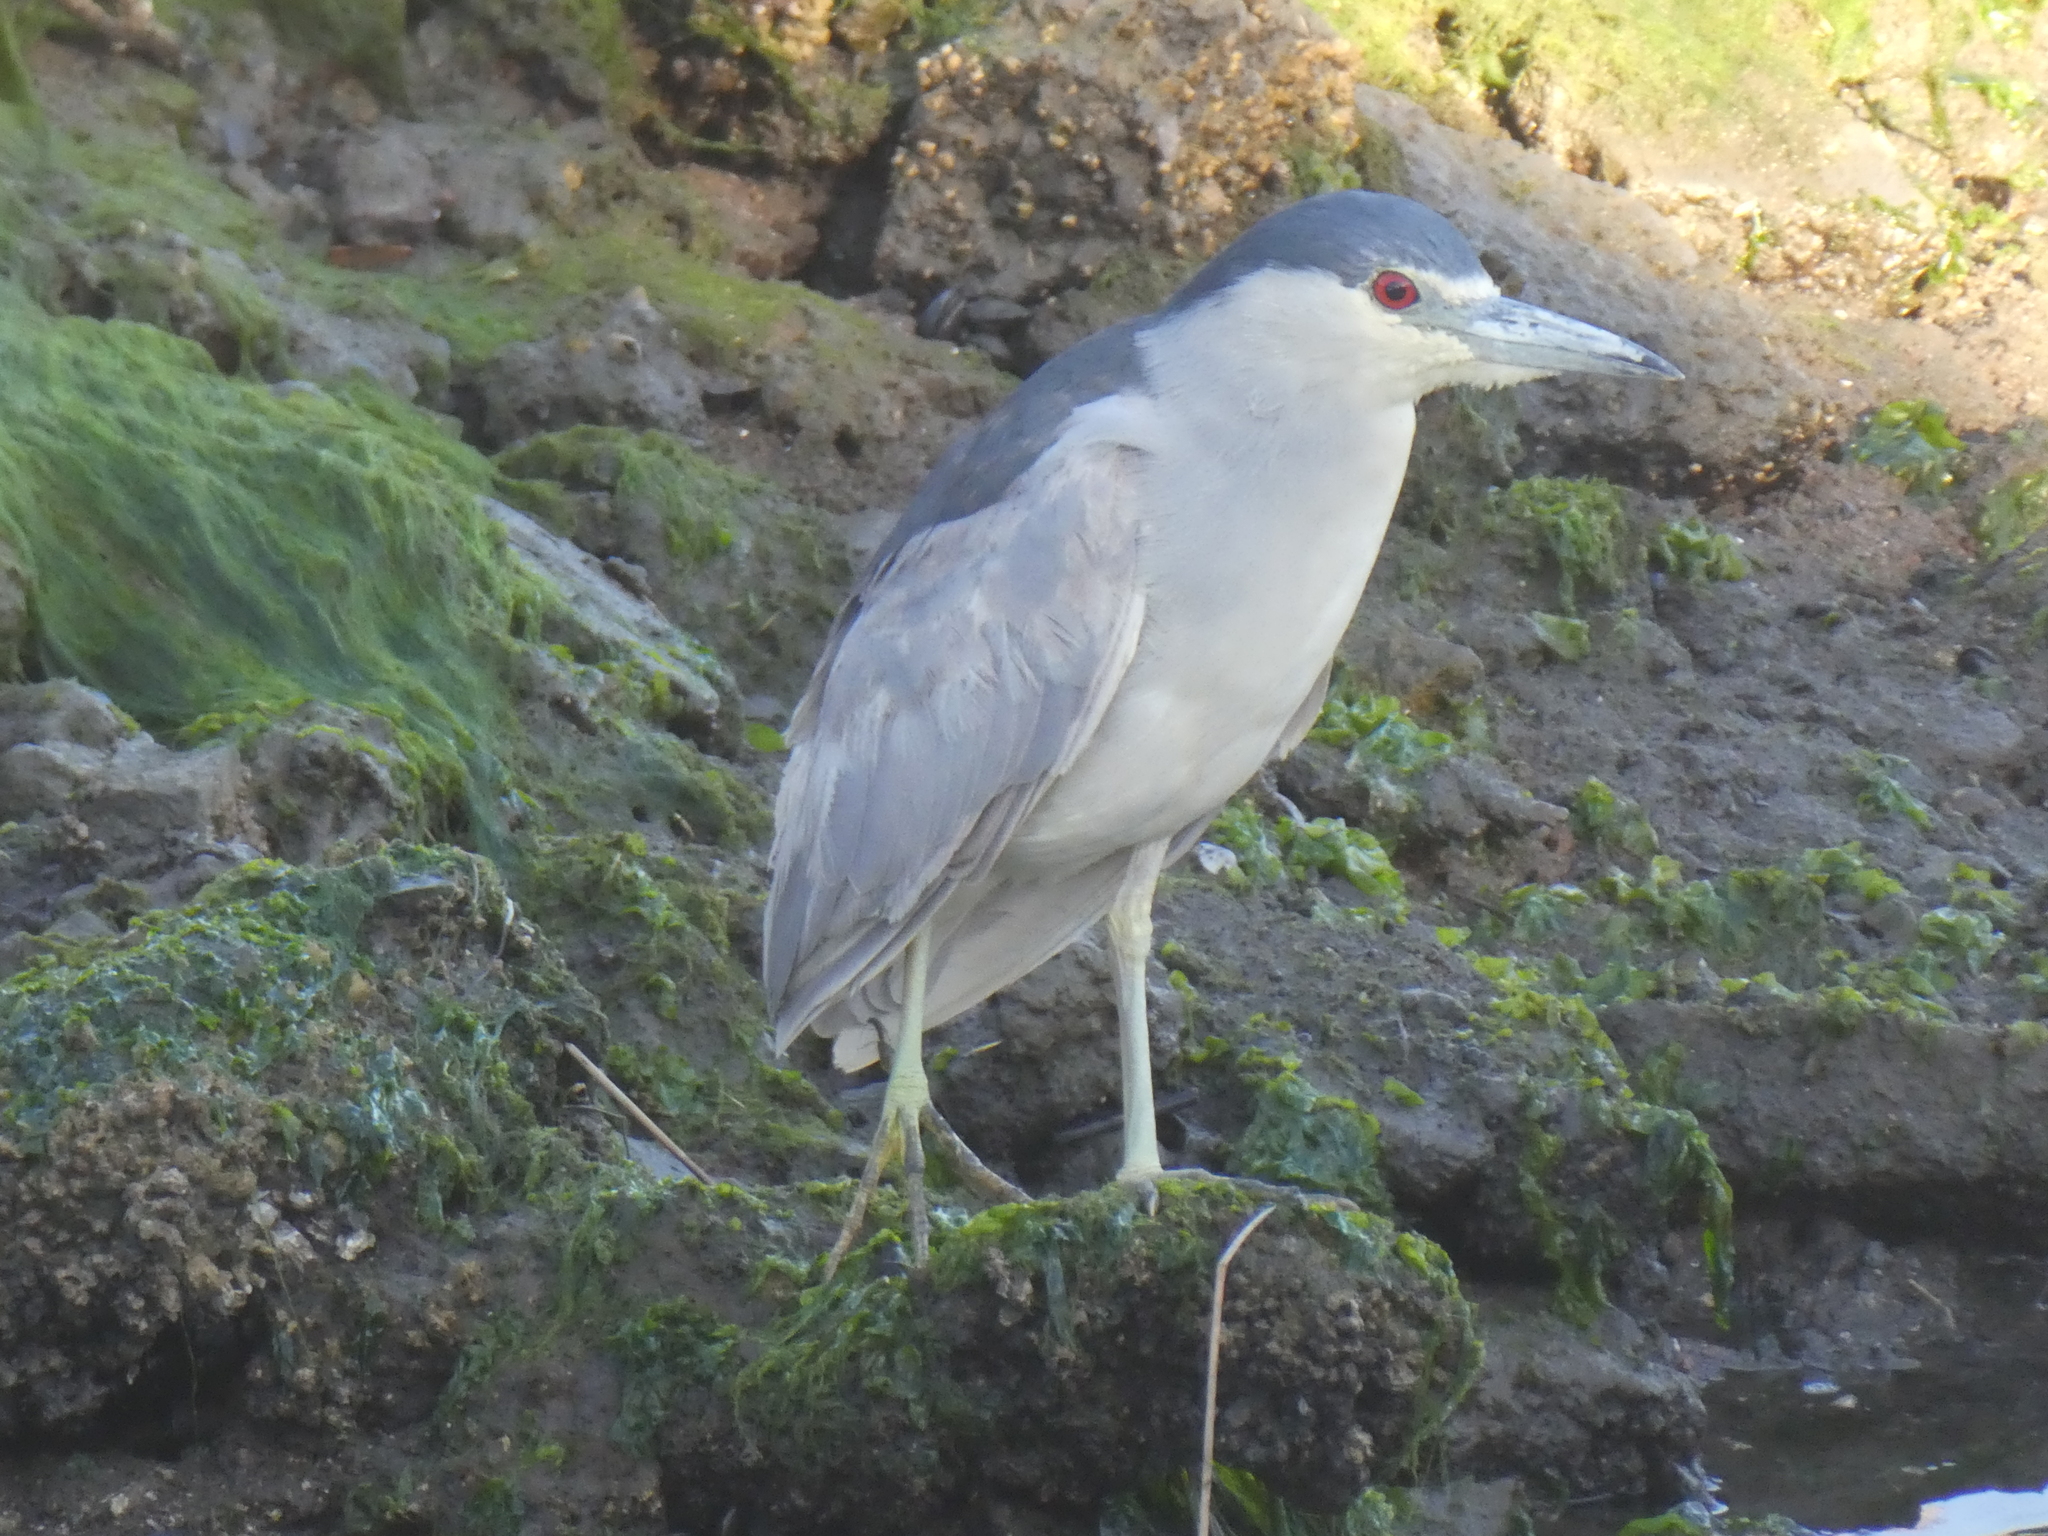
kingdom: Animalia
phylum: Chordata
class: Aves
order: Pelecaniformes
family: Ardeidae
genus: Nycticorax
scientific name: Nycticorax nycticorax
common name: Black-crowned night heron
